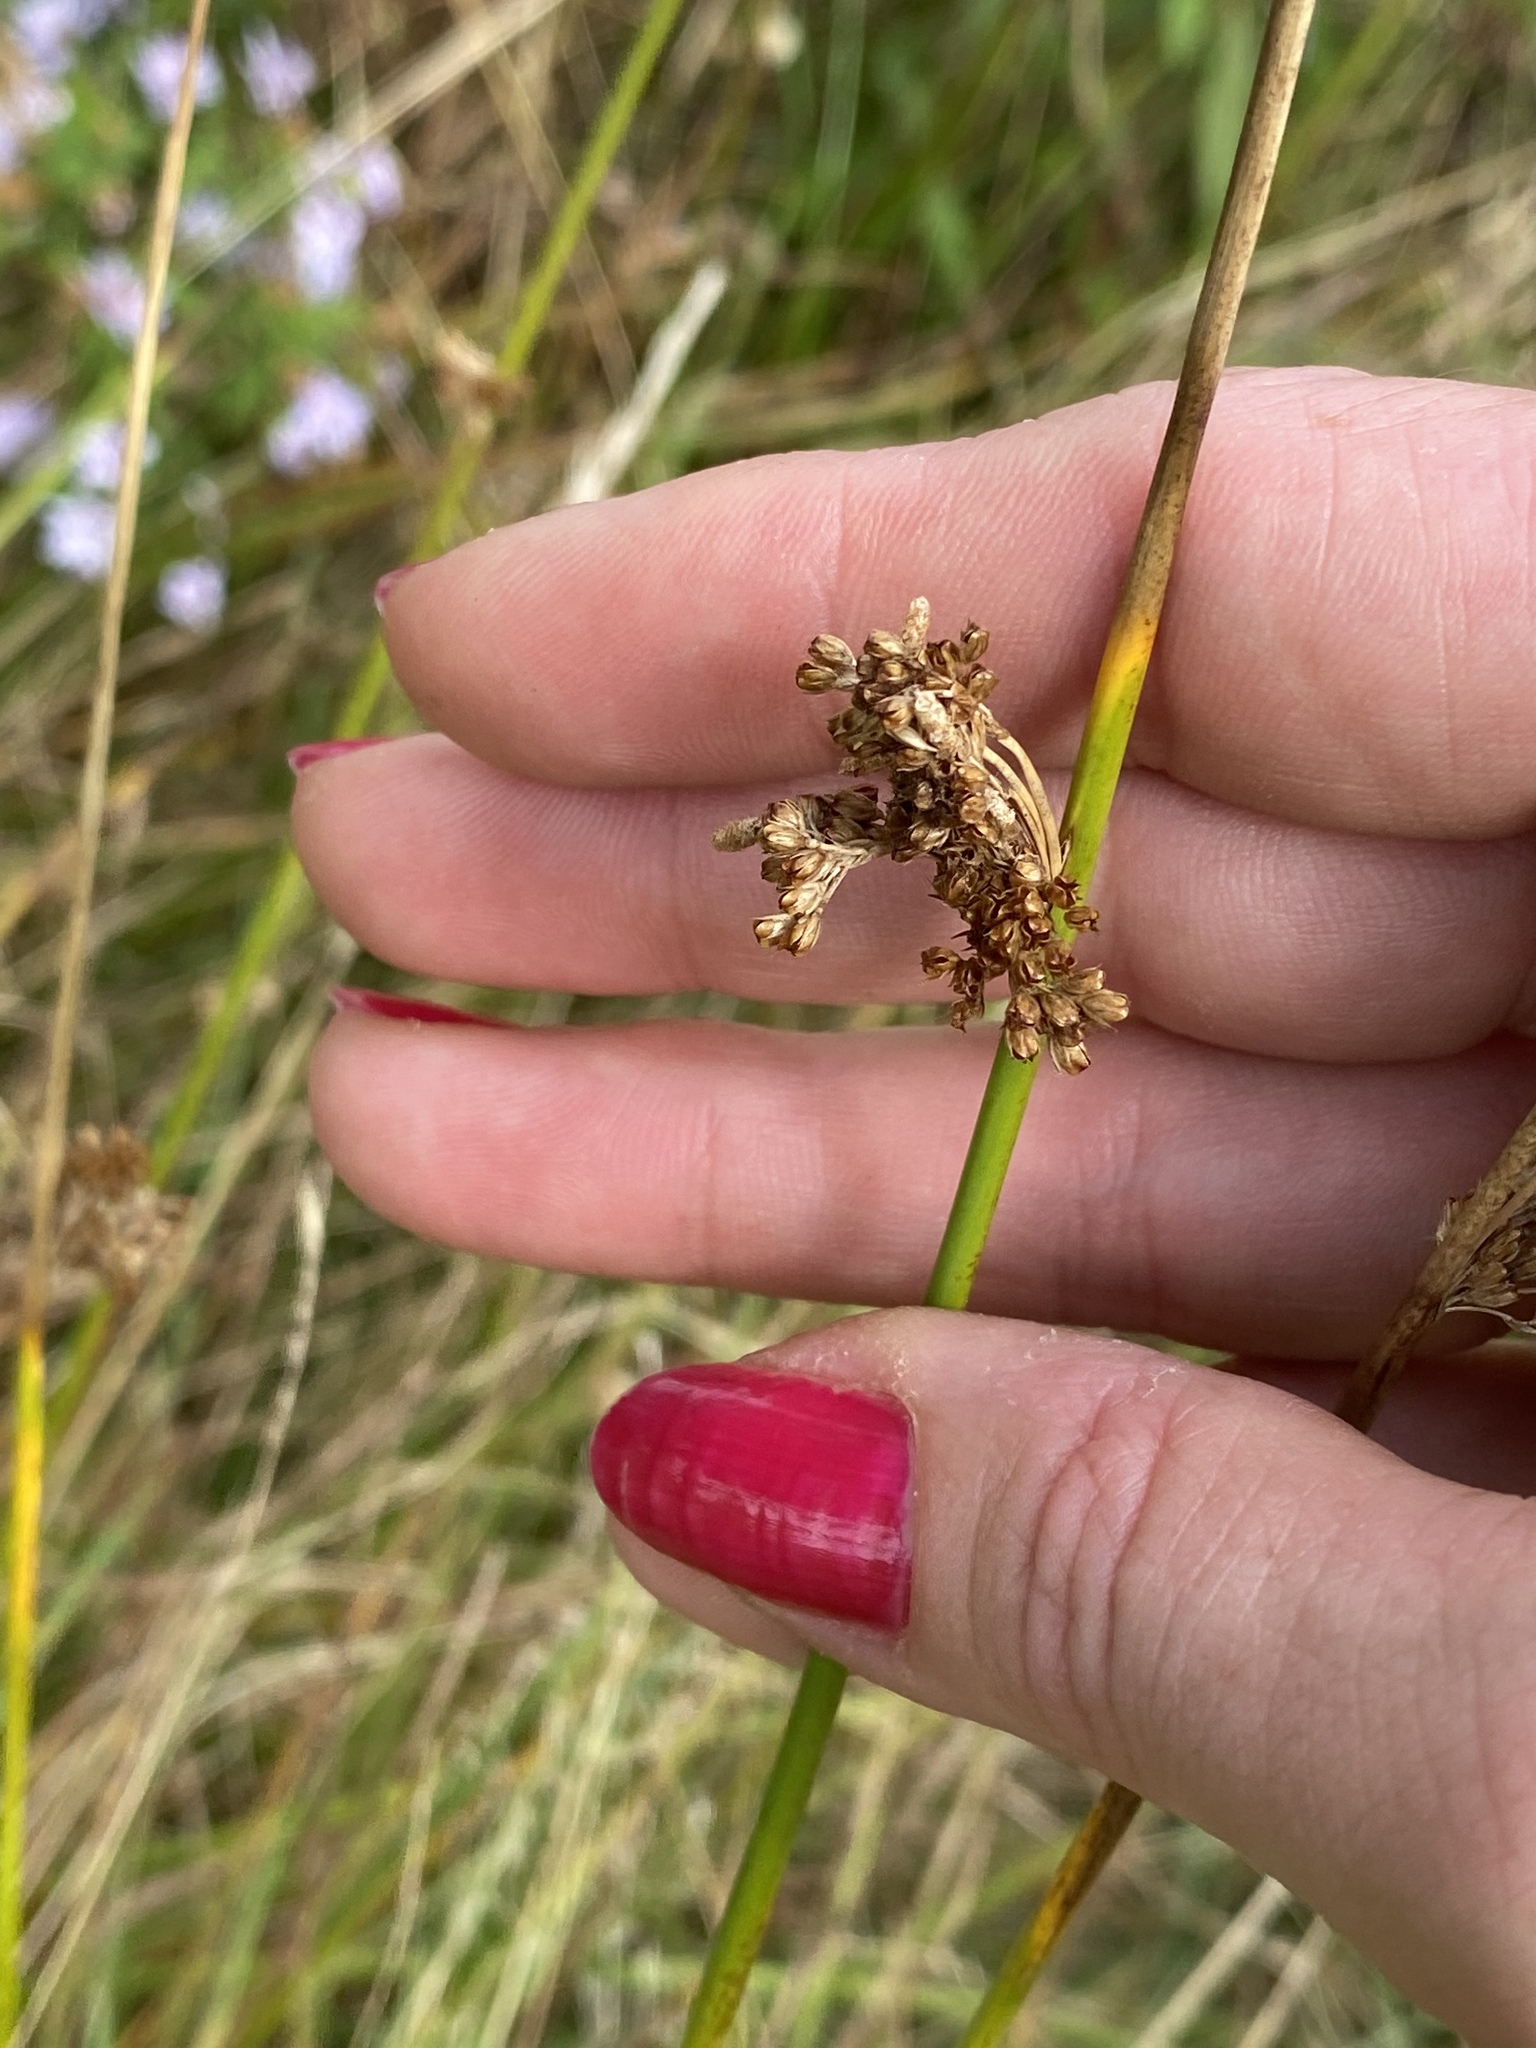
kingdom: Plantae
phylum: Tracheophyta
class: Liliopsida
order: Poales
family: Juncaceae
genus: Juncus
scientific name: Juncus effusus
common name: Soft rush
